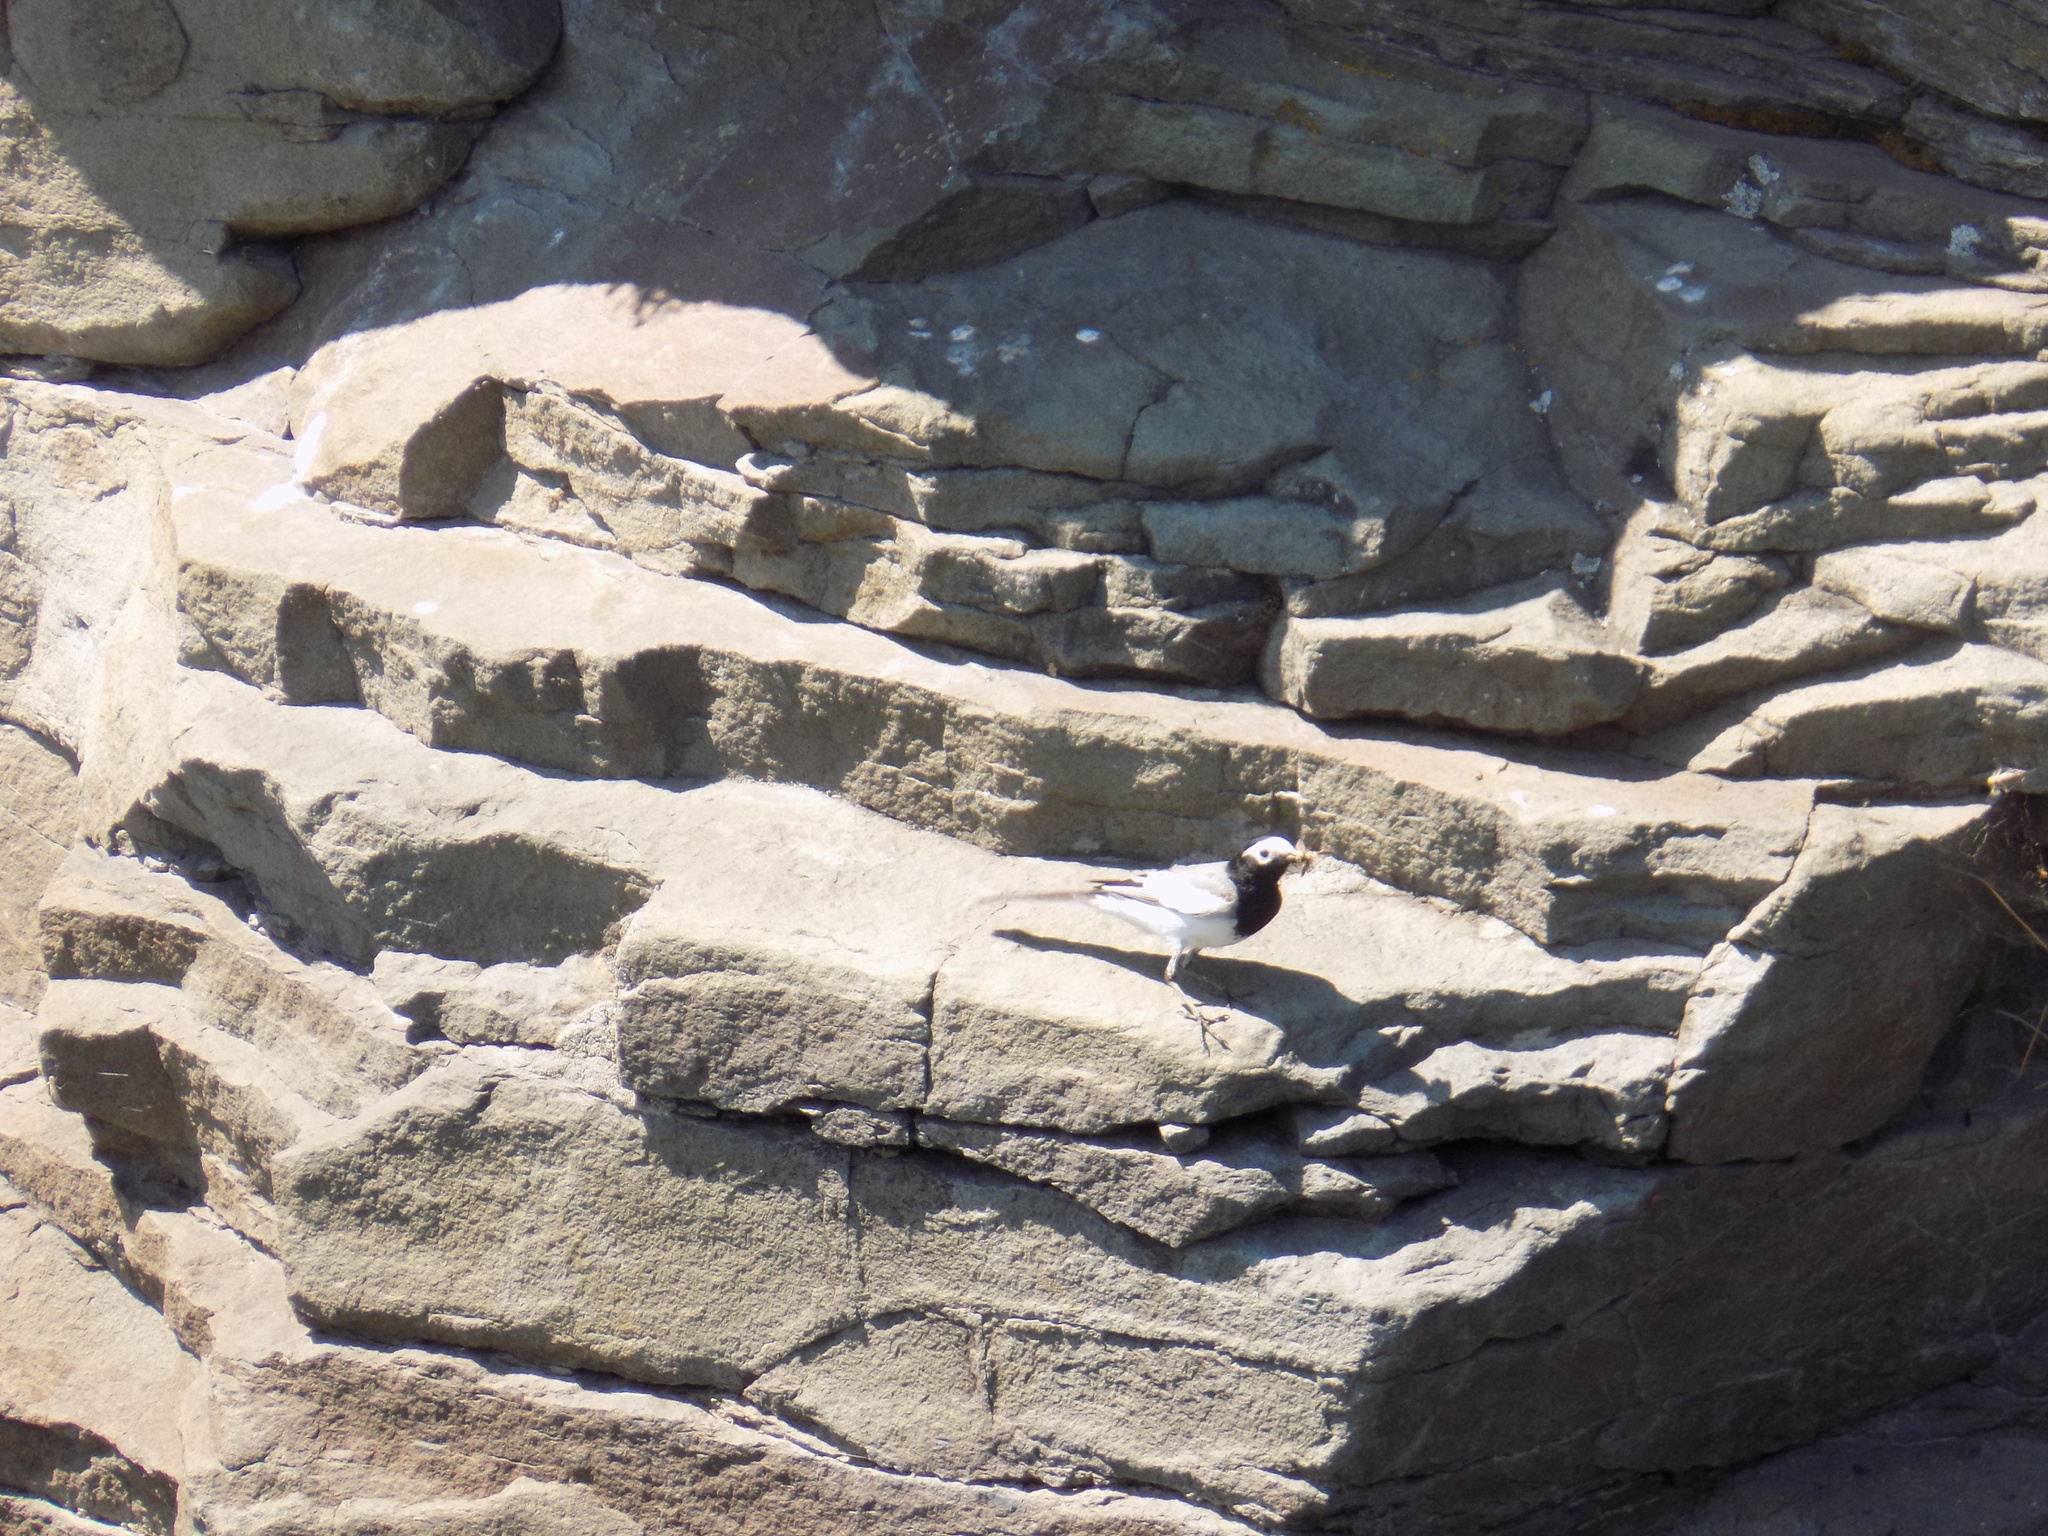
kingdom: Animalia
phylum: Chordata
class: Aves
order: Passeriformes
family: Motacillidae
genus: Motacilla
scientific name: Motacilla alba
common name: White wagtail
